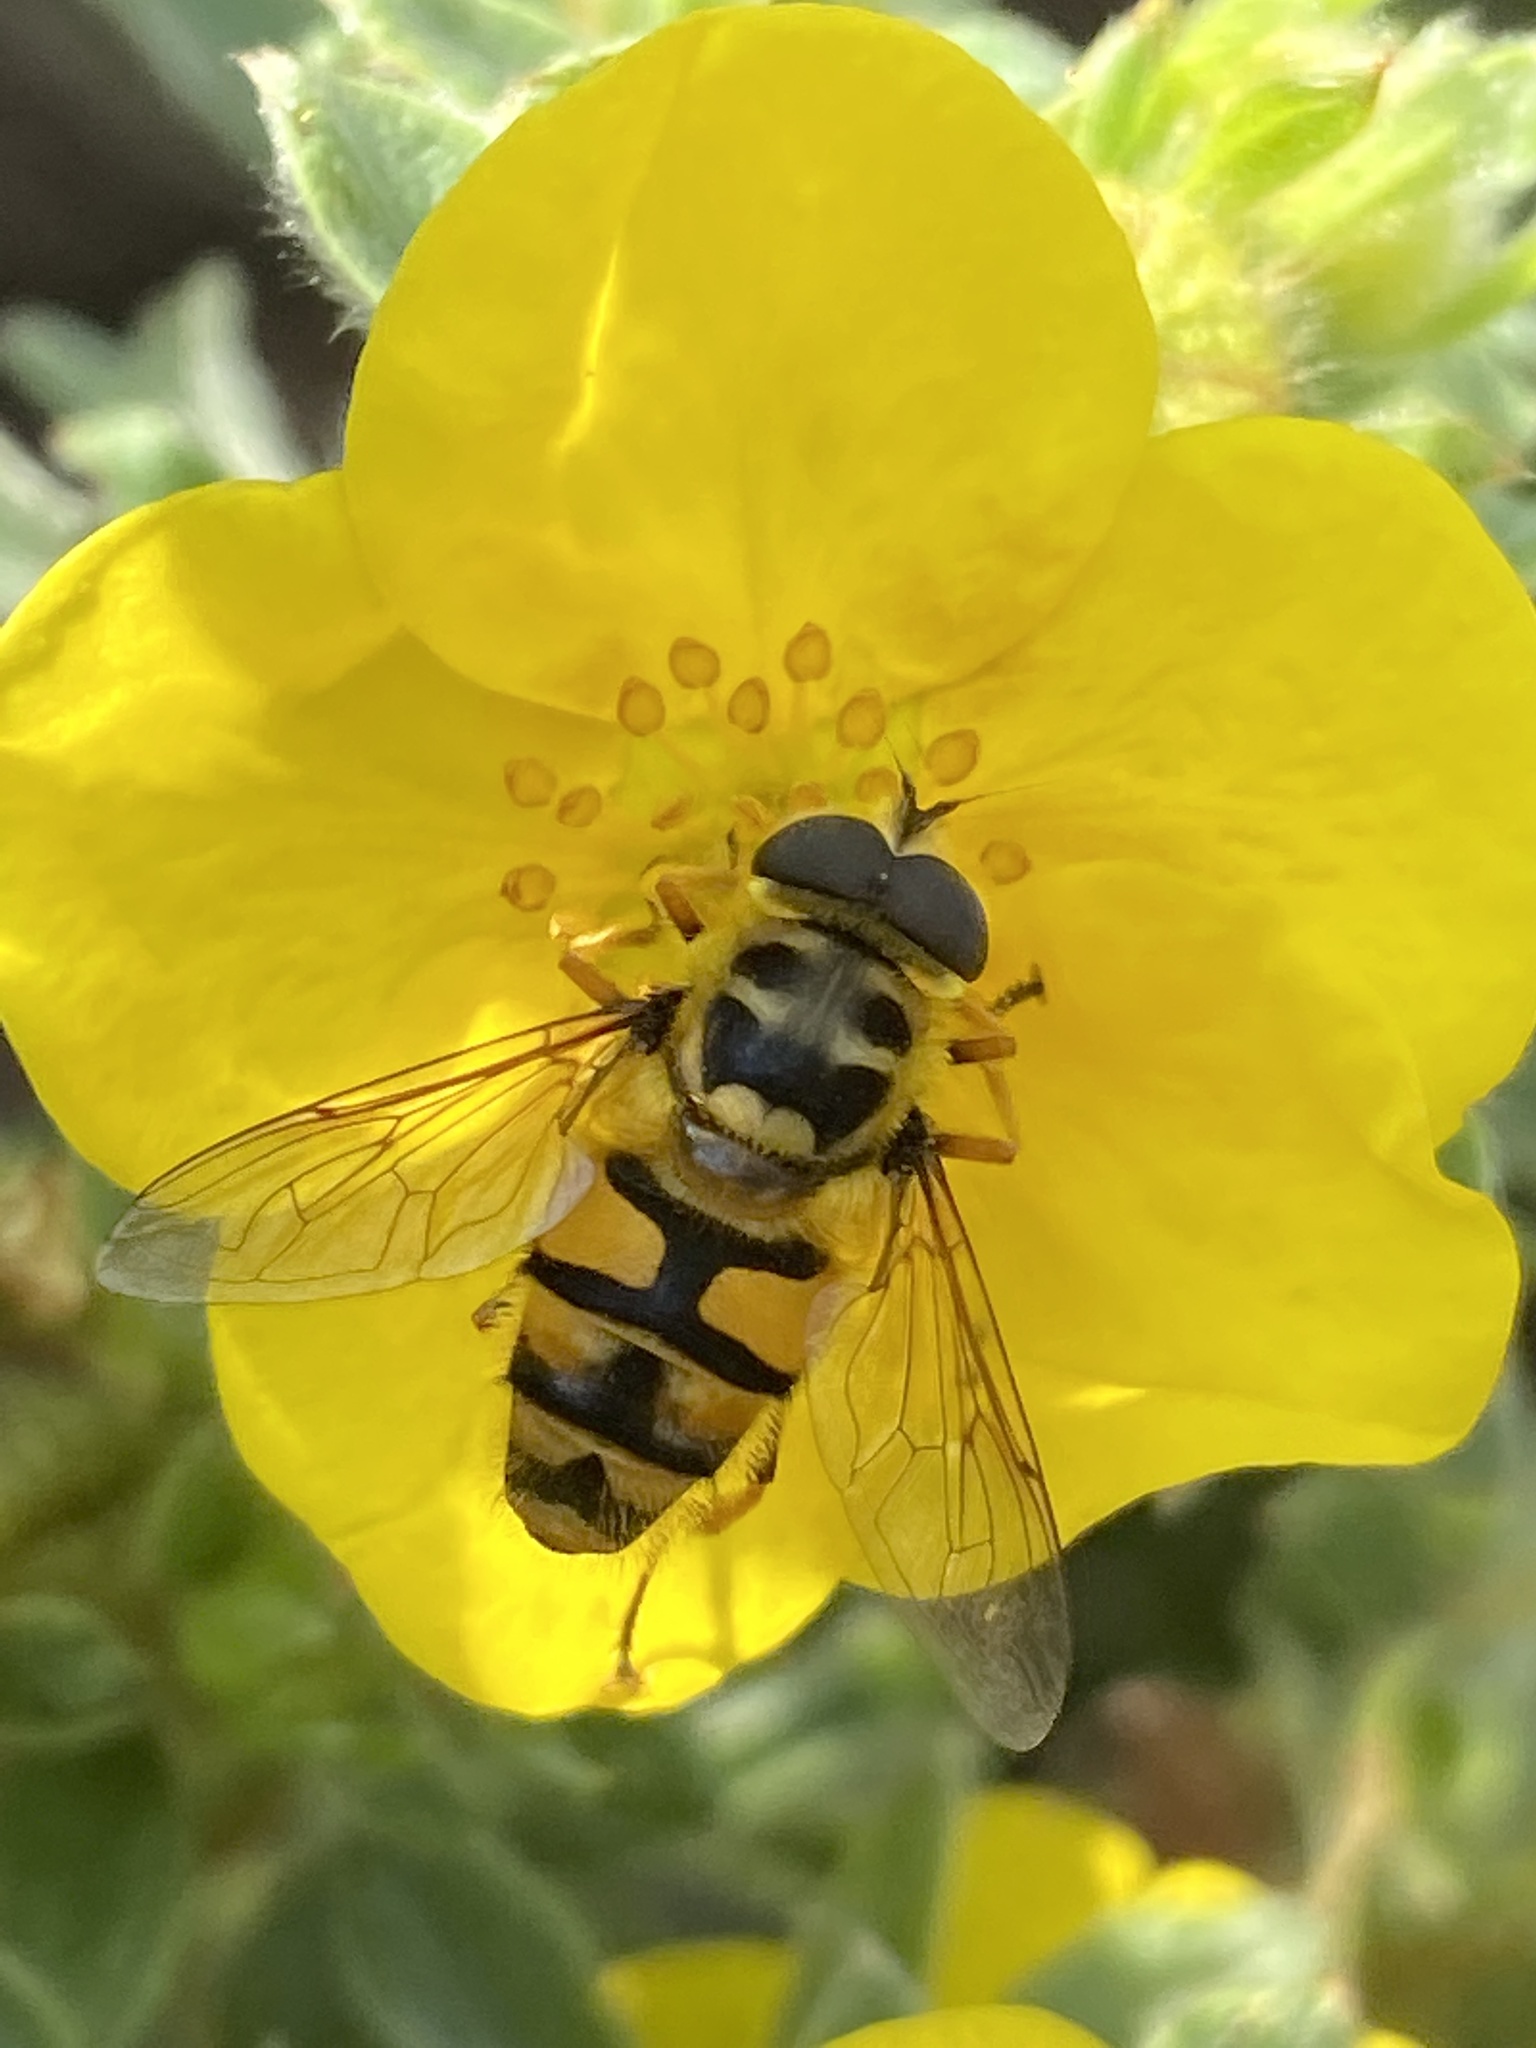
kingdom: Animalia
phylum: Arthropoda
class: Insecta
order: Diptera
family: Syrphidae
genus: Myathropa
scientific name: Myathropa florea
